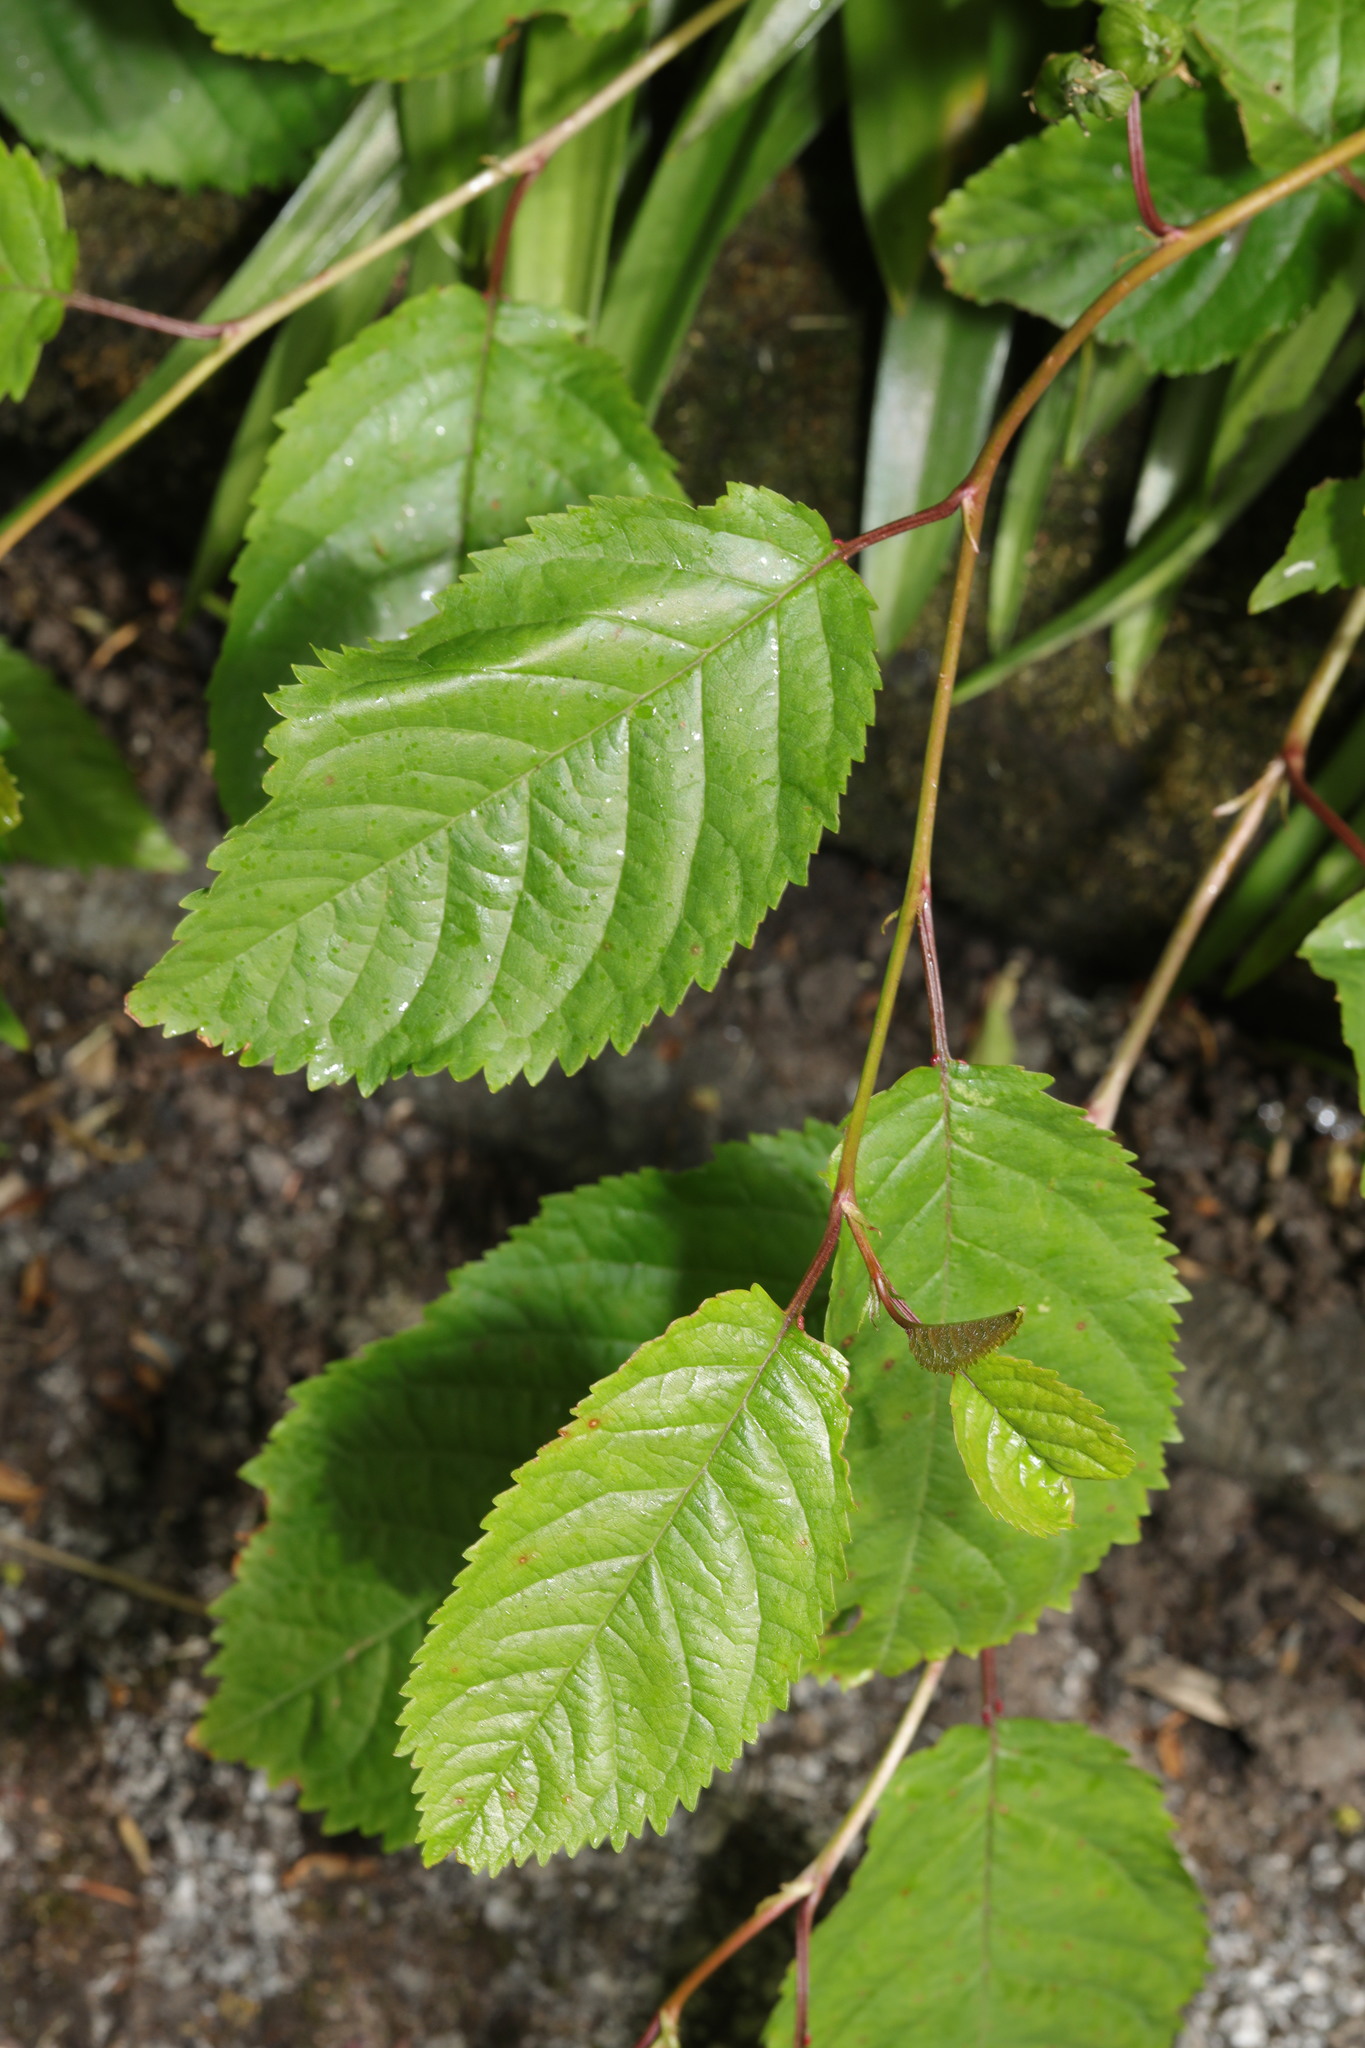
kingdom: Plantae
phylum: Tracheophyta
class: Magnoliopsida
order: Rosales
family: Rosaceae
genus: Prunus
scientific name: Prunus avium
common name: Sweet cherry
